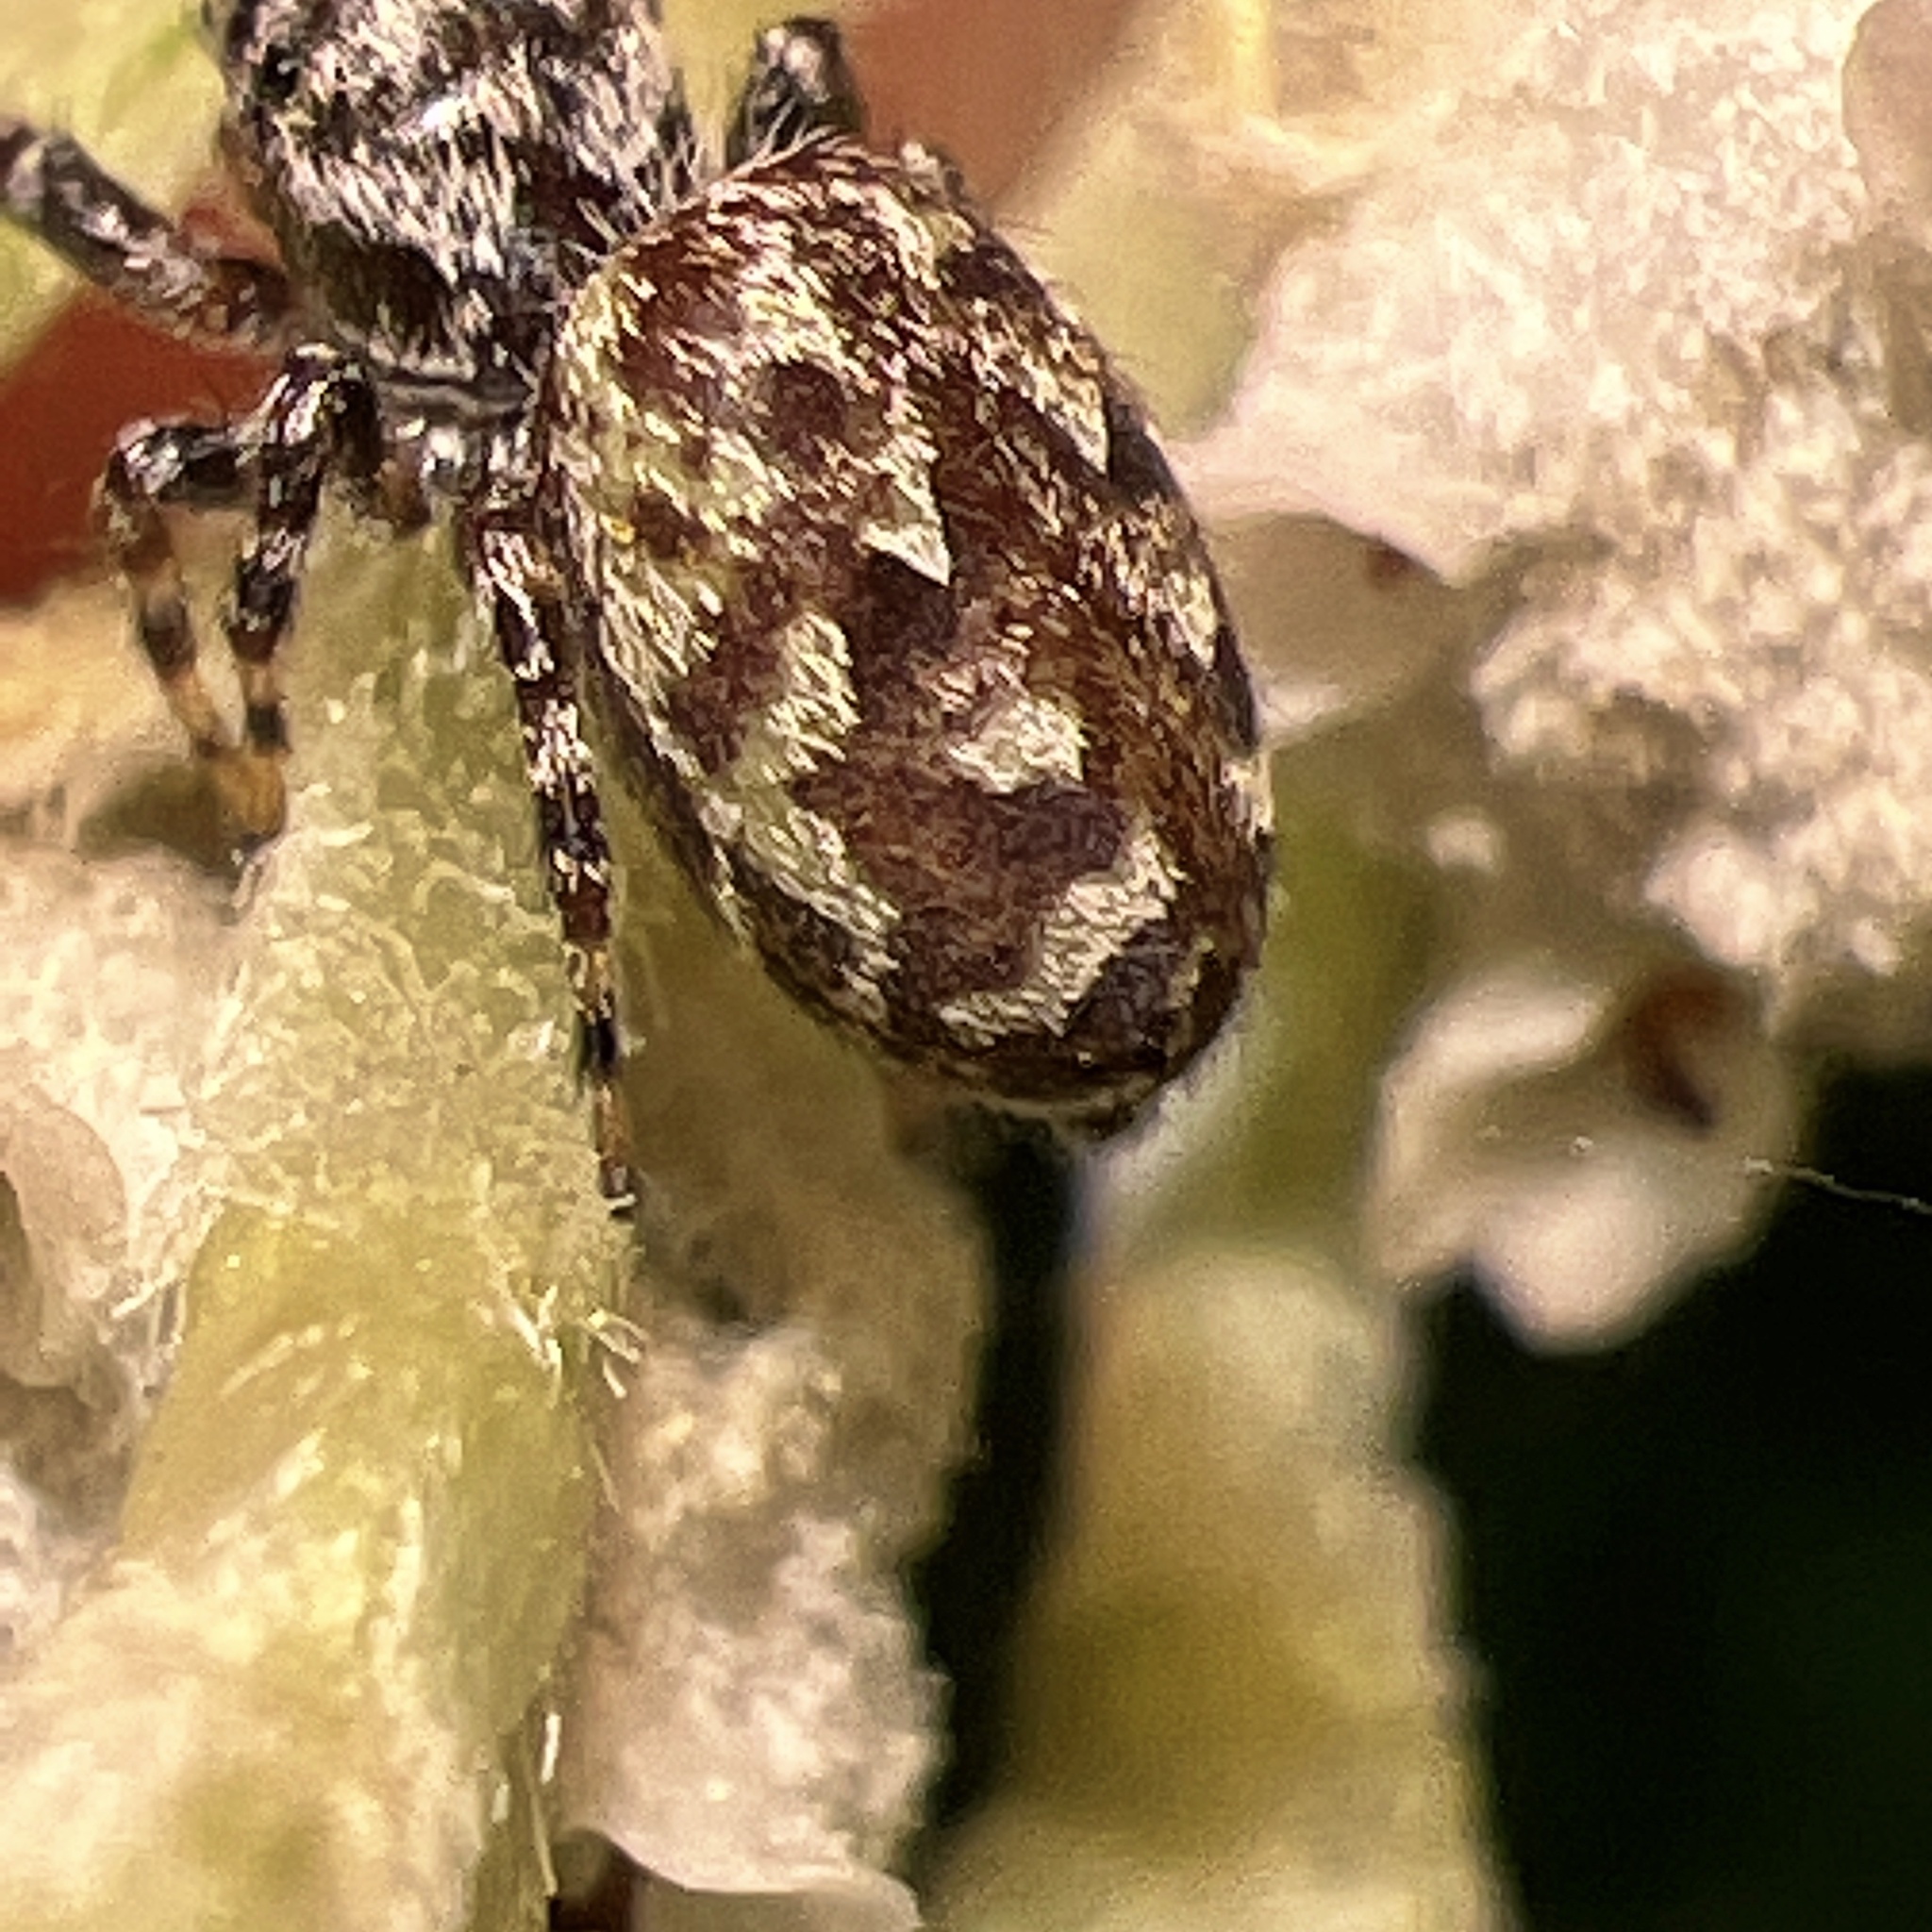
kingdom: Animalia
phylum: Arthropoda
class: Arachnida
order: Araneae
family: Salticidae
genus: Pelegrina
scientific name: Pelegrina galathea
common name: Jumping spiders
